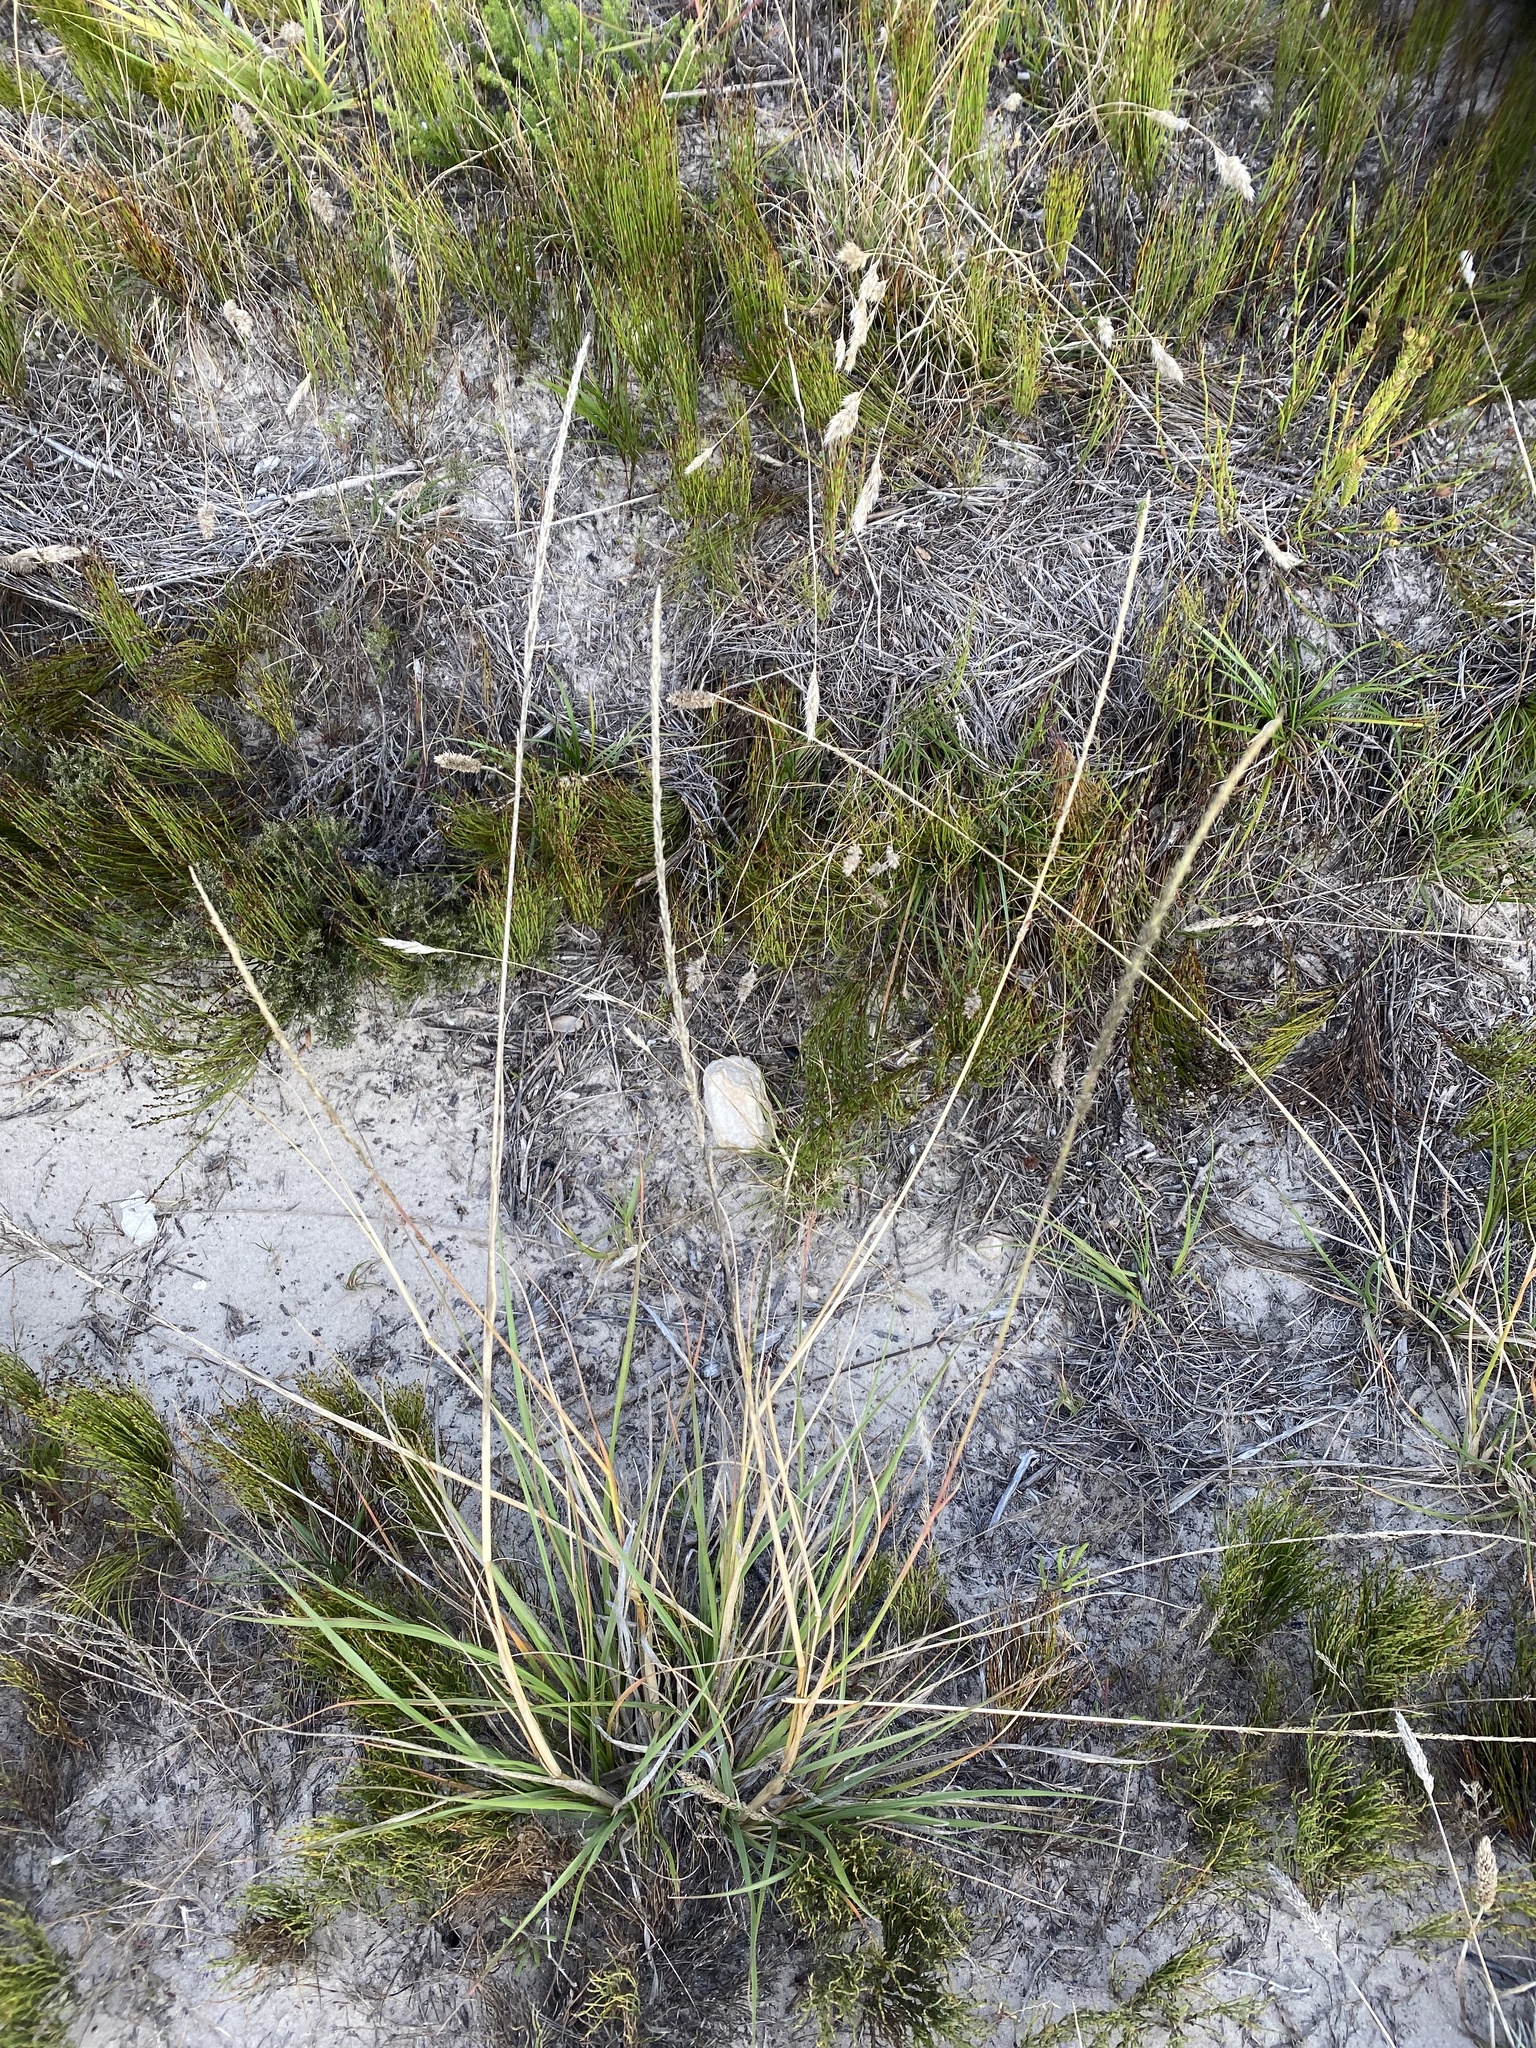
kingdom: Plantae
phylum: Tracheophyta
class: Liliopsida
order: Poales
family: Poaceae
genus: Sporobolus
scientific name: Sporobolus africanus
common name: African dropseed
